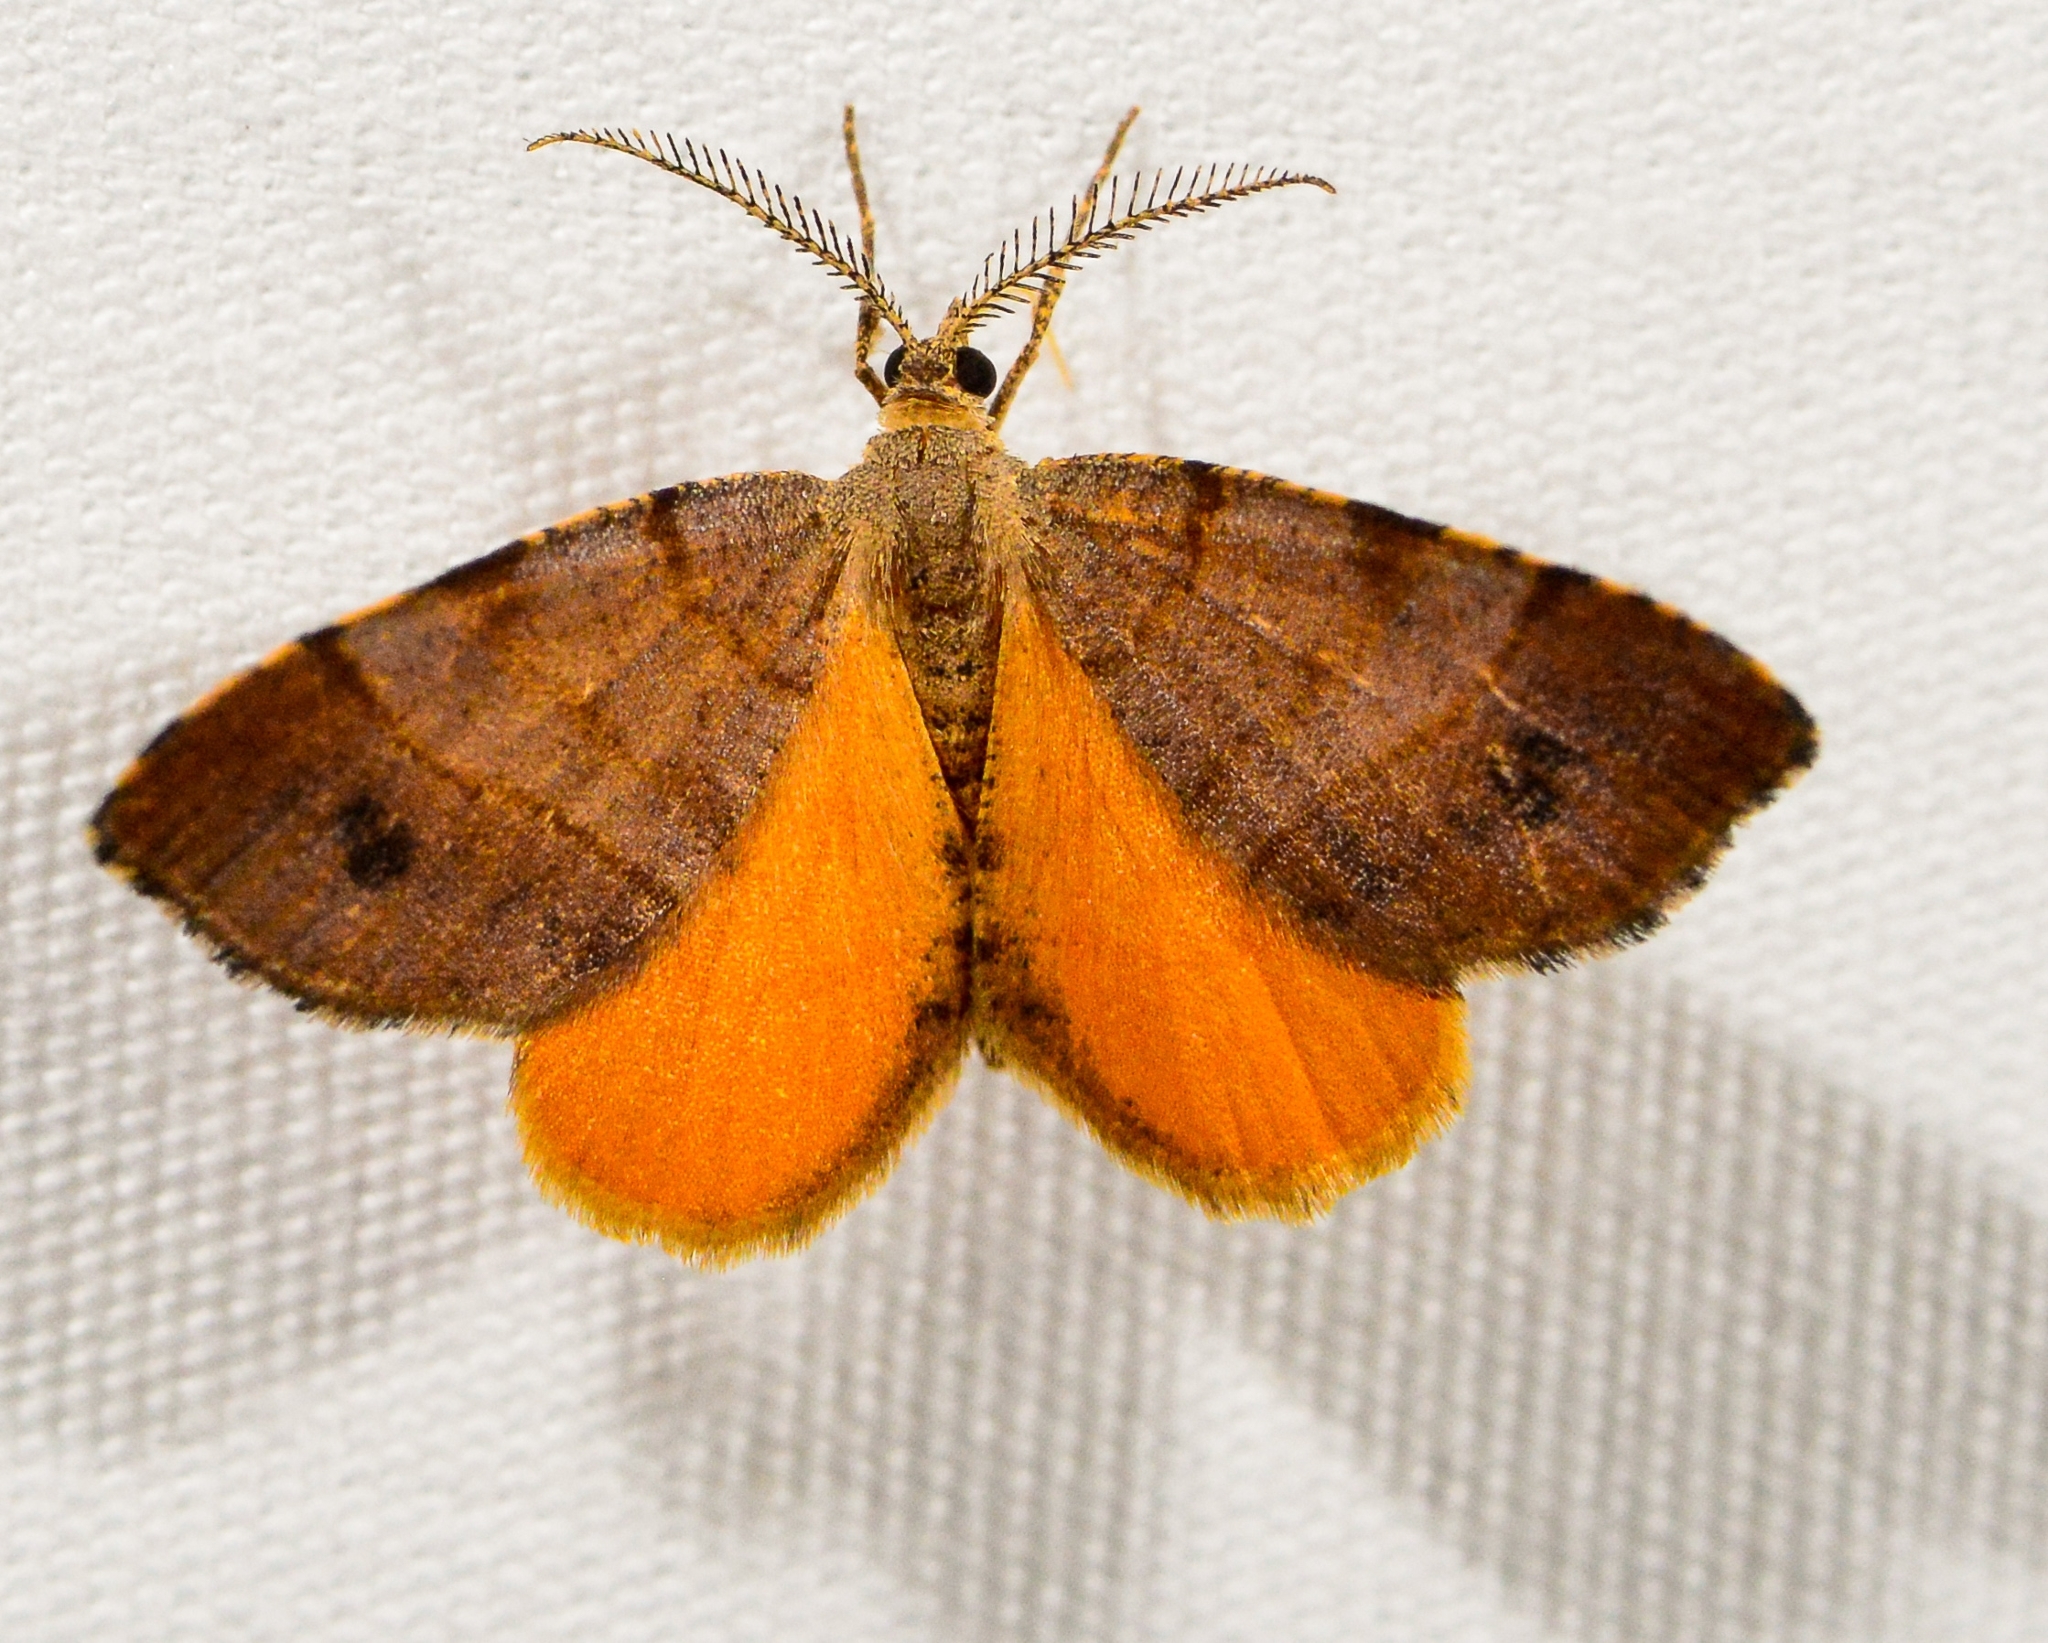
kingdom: Animalia
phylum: Arthropoda
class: Insecta
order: Lepidoptera
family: Geometridae
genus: Mellilla
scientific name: Mellilla xanthometata
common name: Orange wing moth
